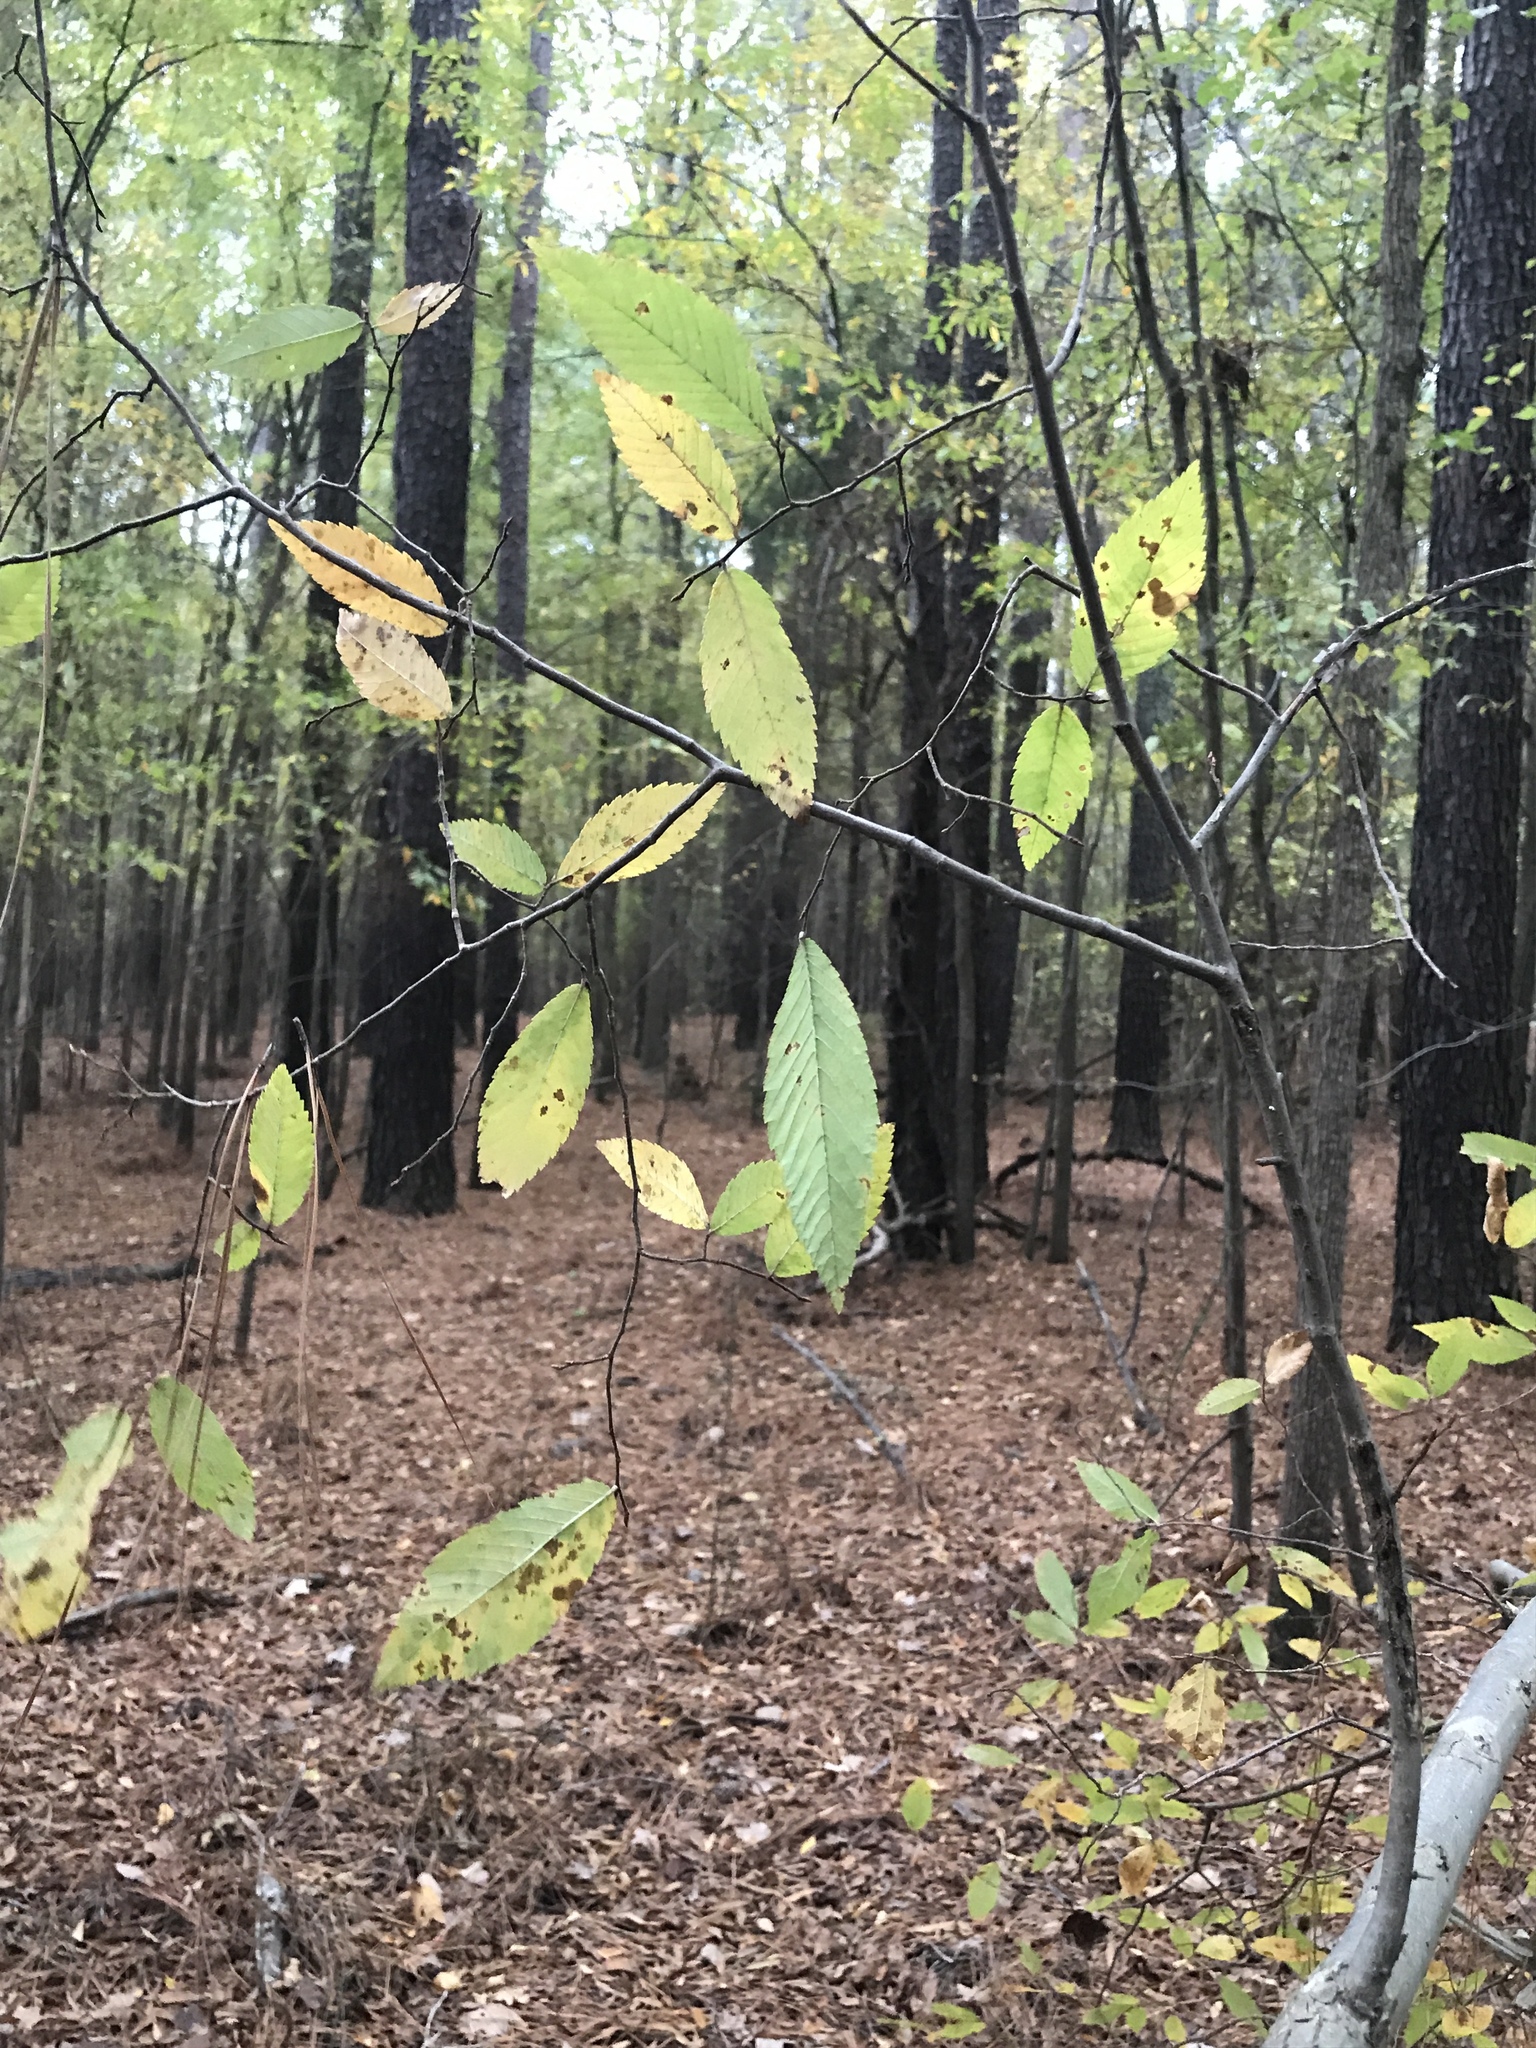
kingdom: Plantae
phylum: Tracheophyta
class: Magnoliopsida
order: Fagales
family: Betulaceae
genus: Carpinus
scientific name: Carpinus caroliniana
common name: American hornbeam
